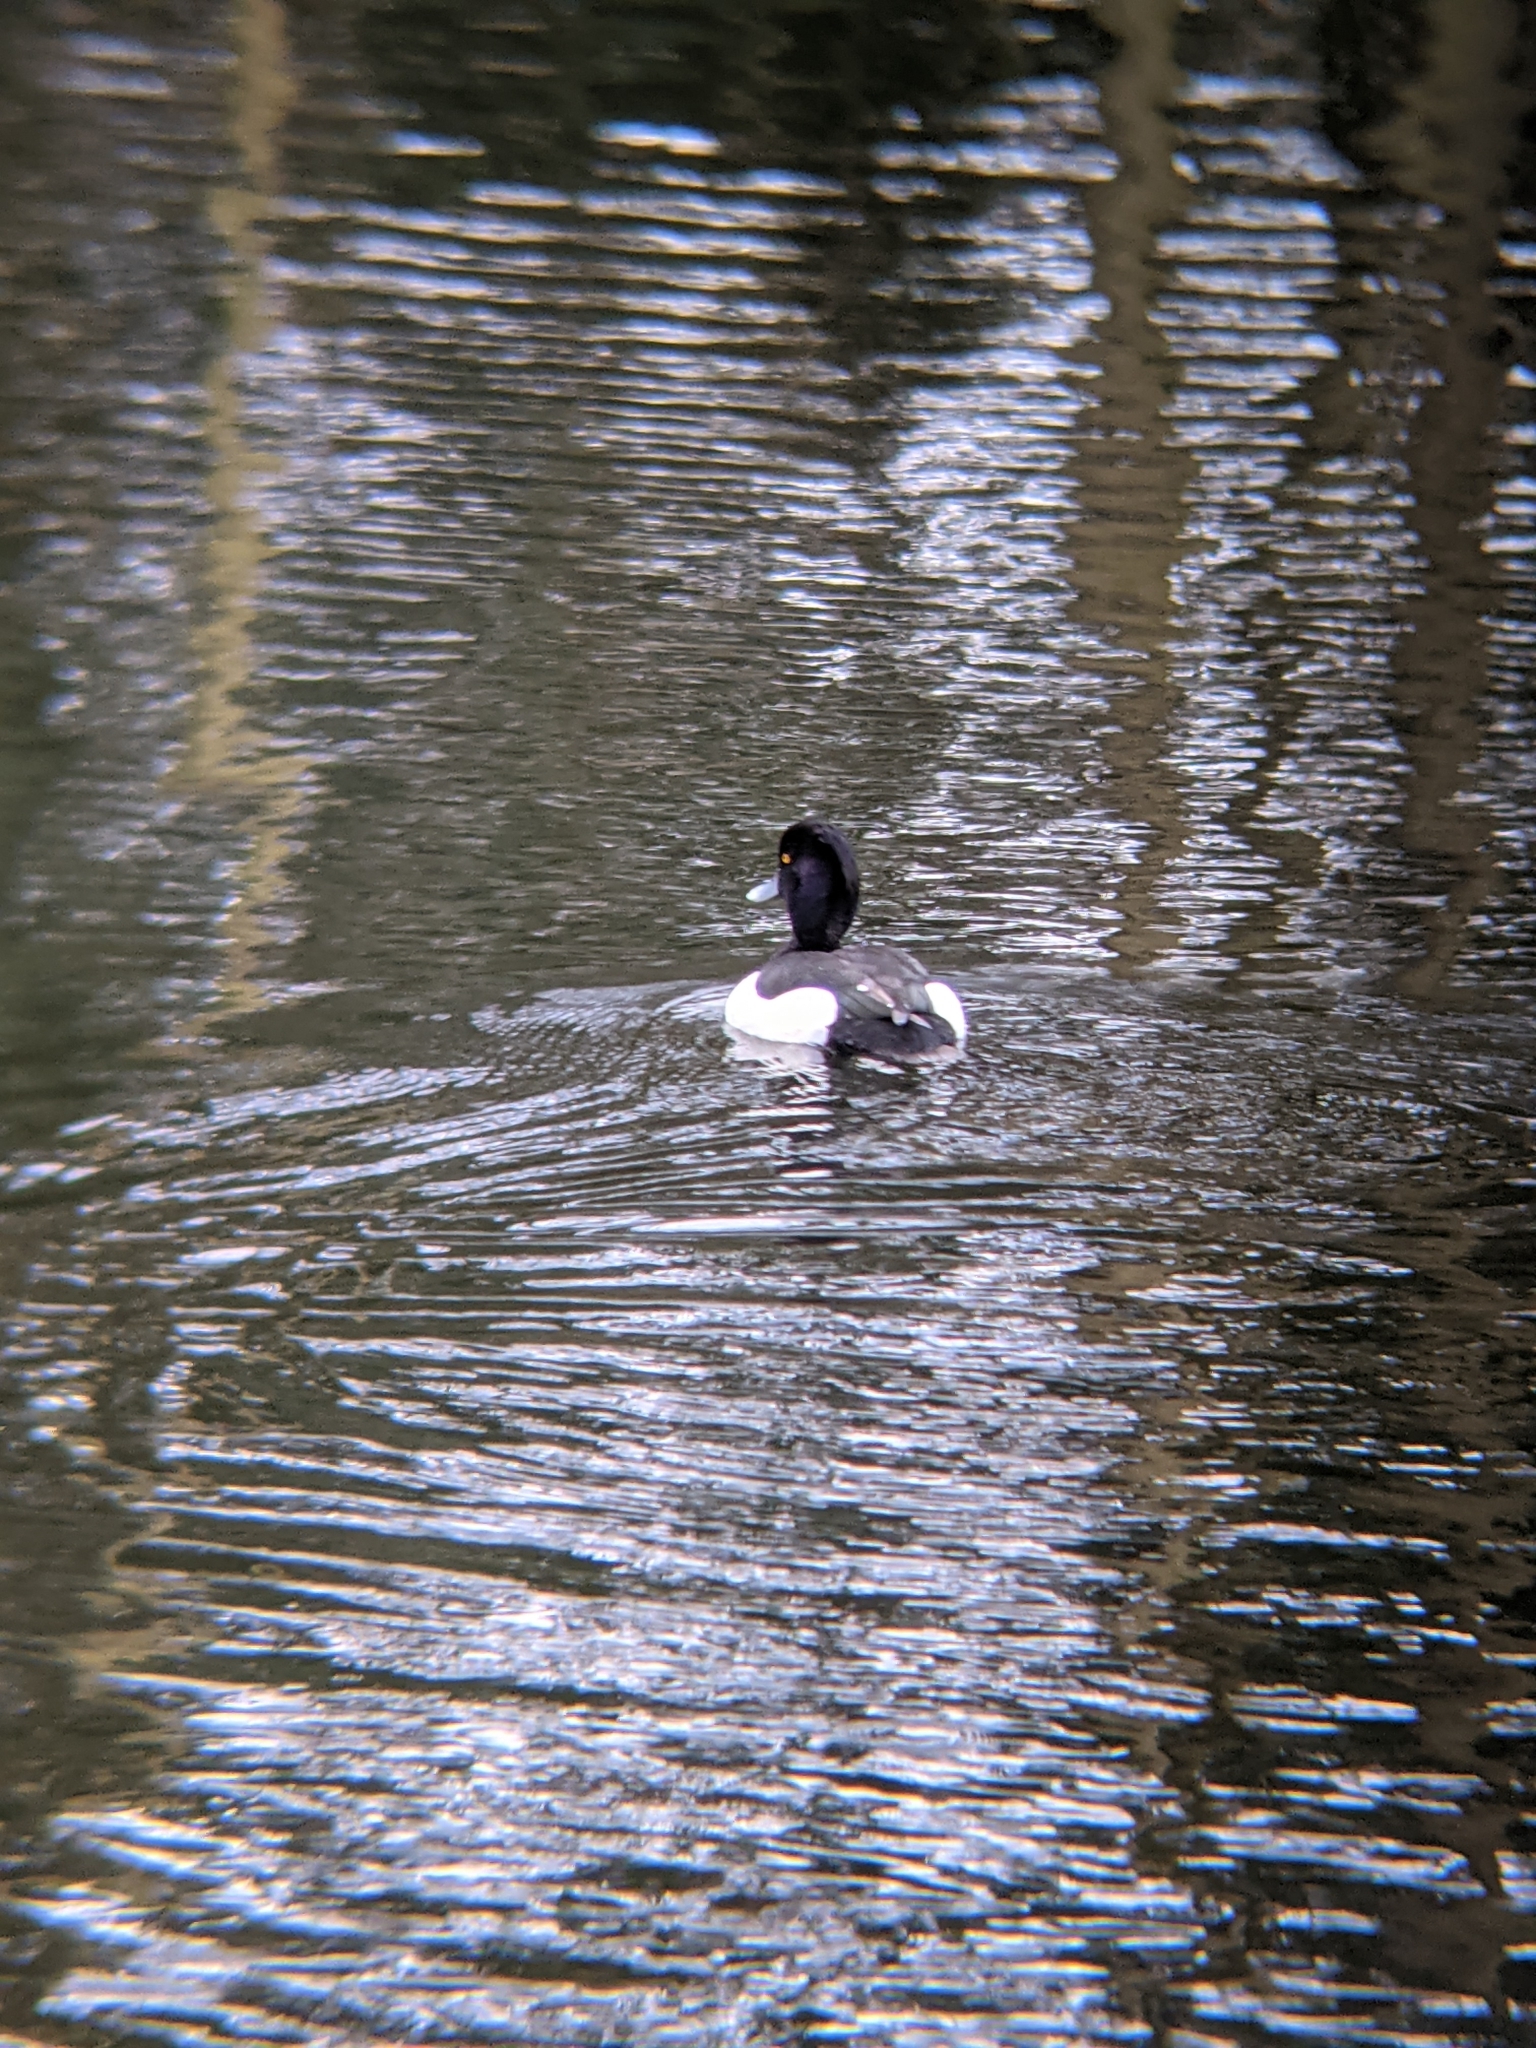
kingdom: Animalia
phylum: Chordata
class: Aves
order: Anseriformes
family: Anatidae
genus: Aythya
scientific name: Aythya fuligula
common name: Tufted duck
